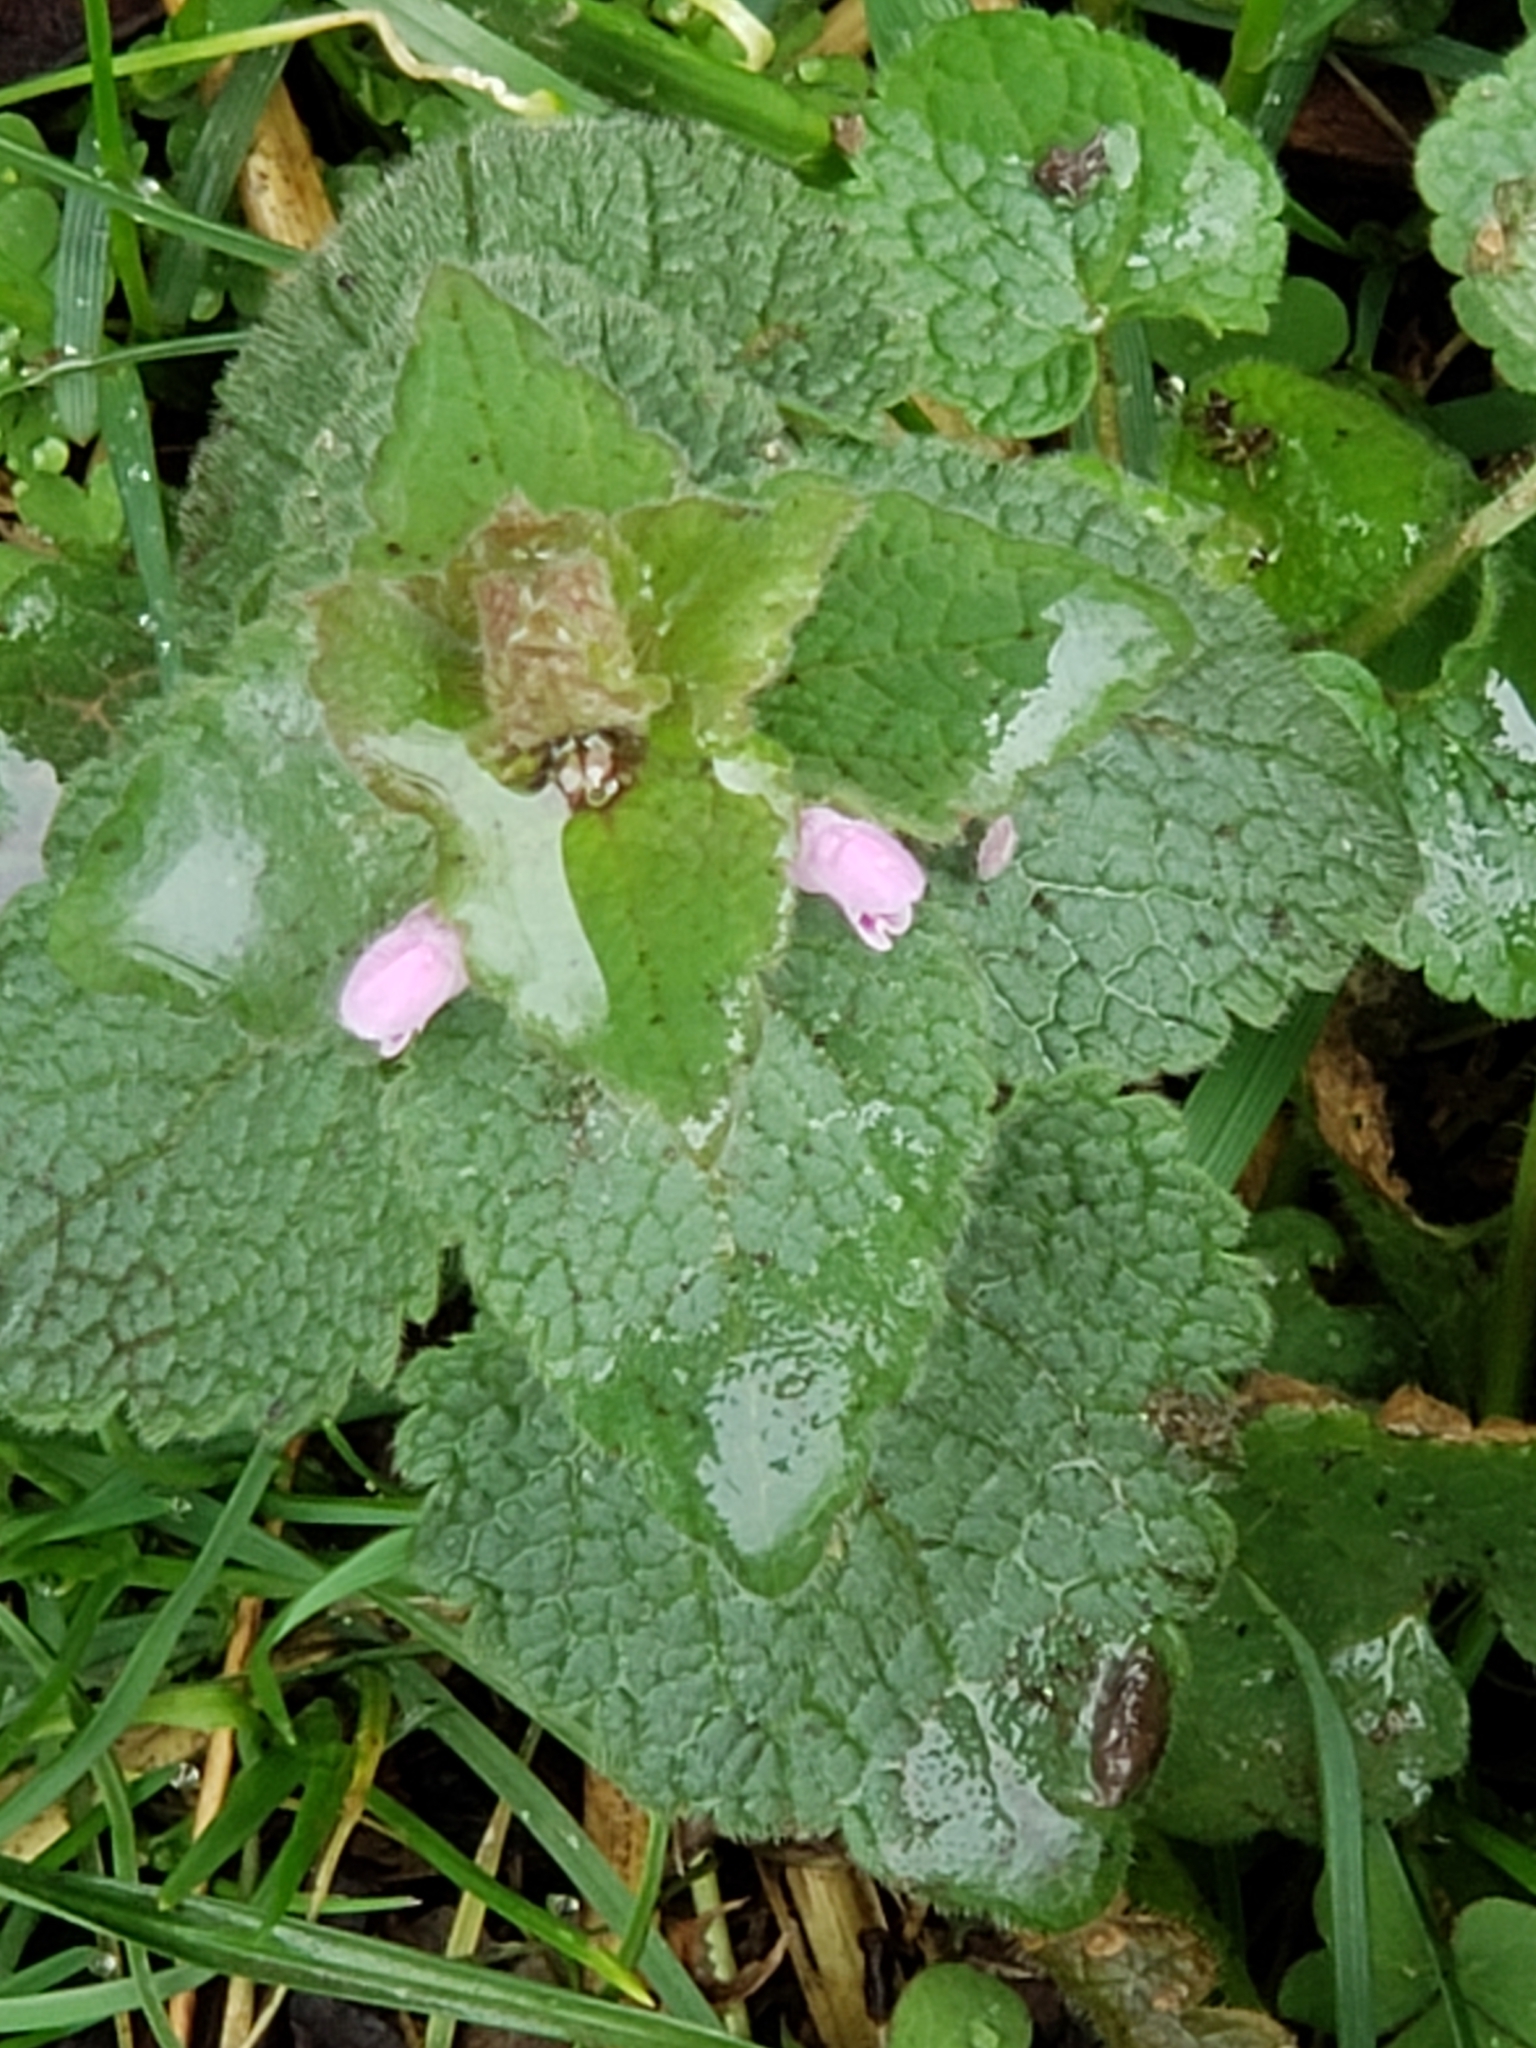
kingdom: Plantae
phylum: Tracheophyta
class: Magnoliopsida
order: Lamiales
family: Lamiaceae
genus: Lamium
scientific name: Lamium purpureum
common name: Red dead-nettle
